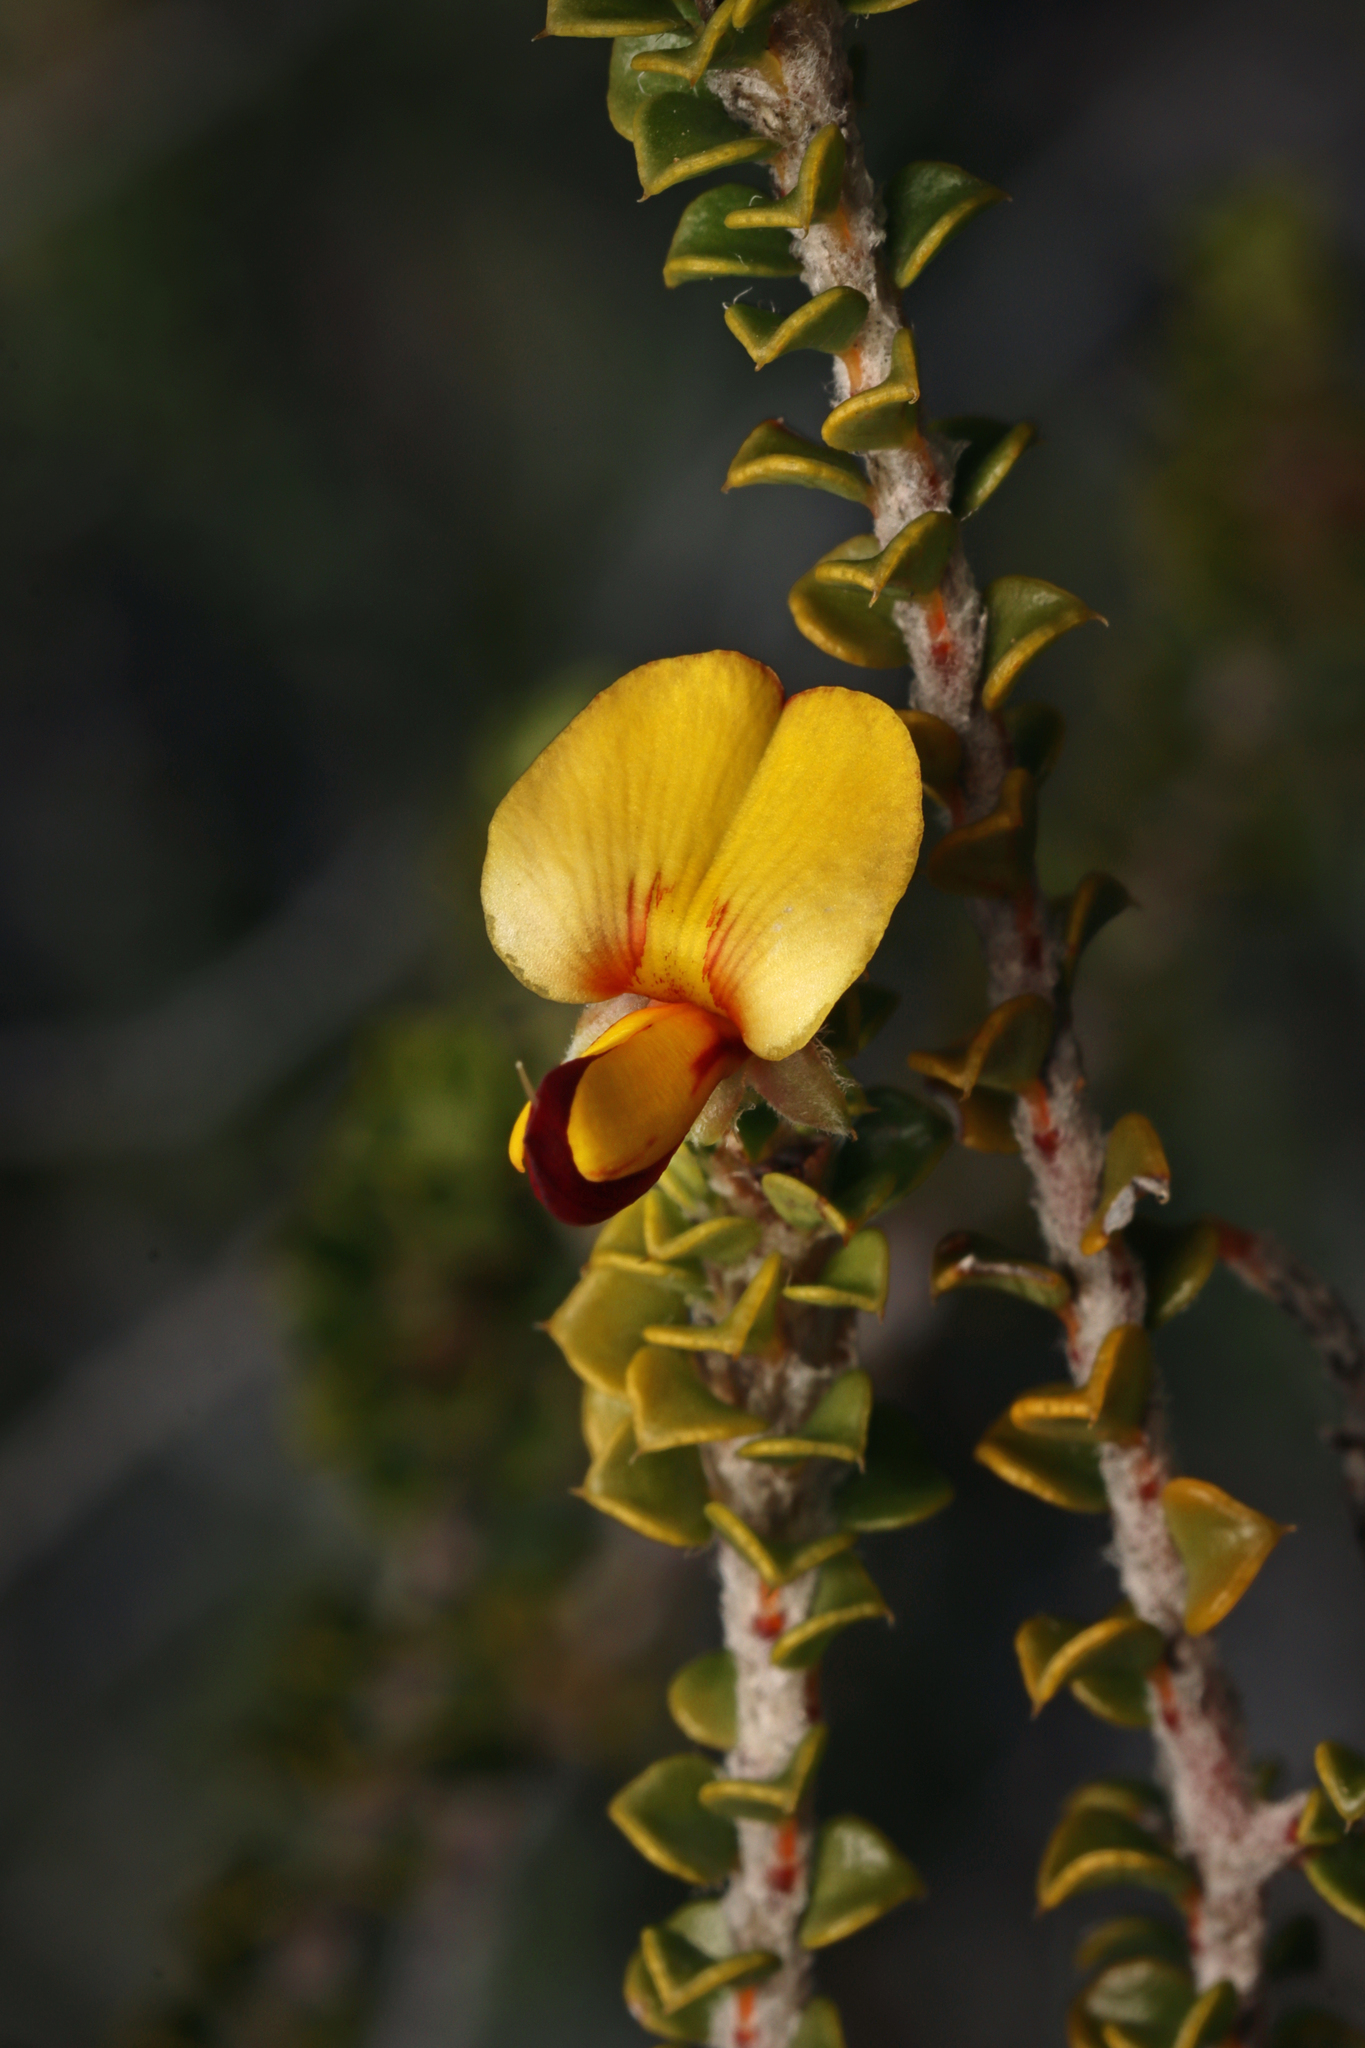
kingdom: Plantae
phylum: Tracheophyta
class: Magnoliopsida
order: Fabales
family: Fabaceae
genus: Pultenaea
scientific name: Pultenaea densifolia
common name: Dense-leaf bush-pea
